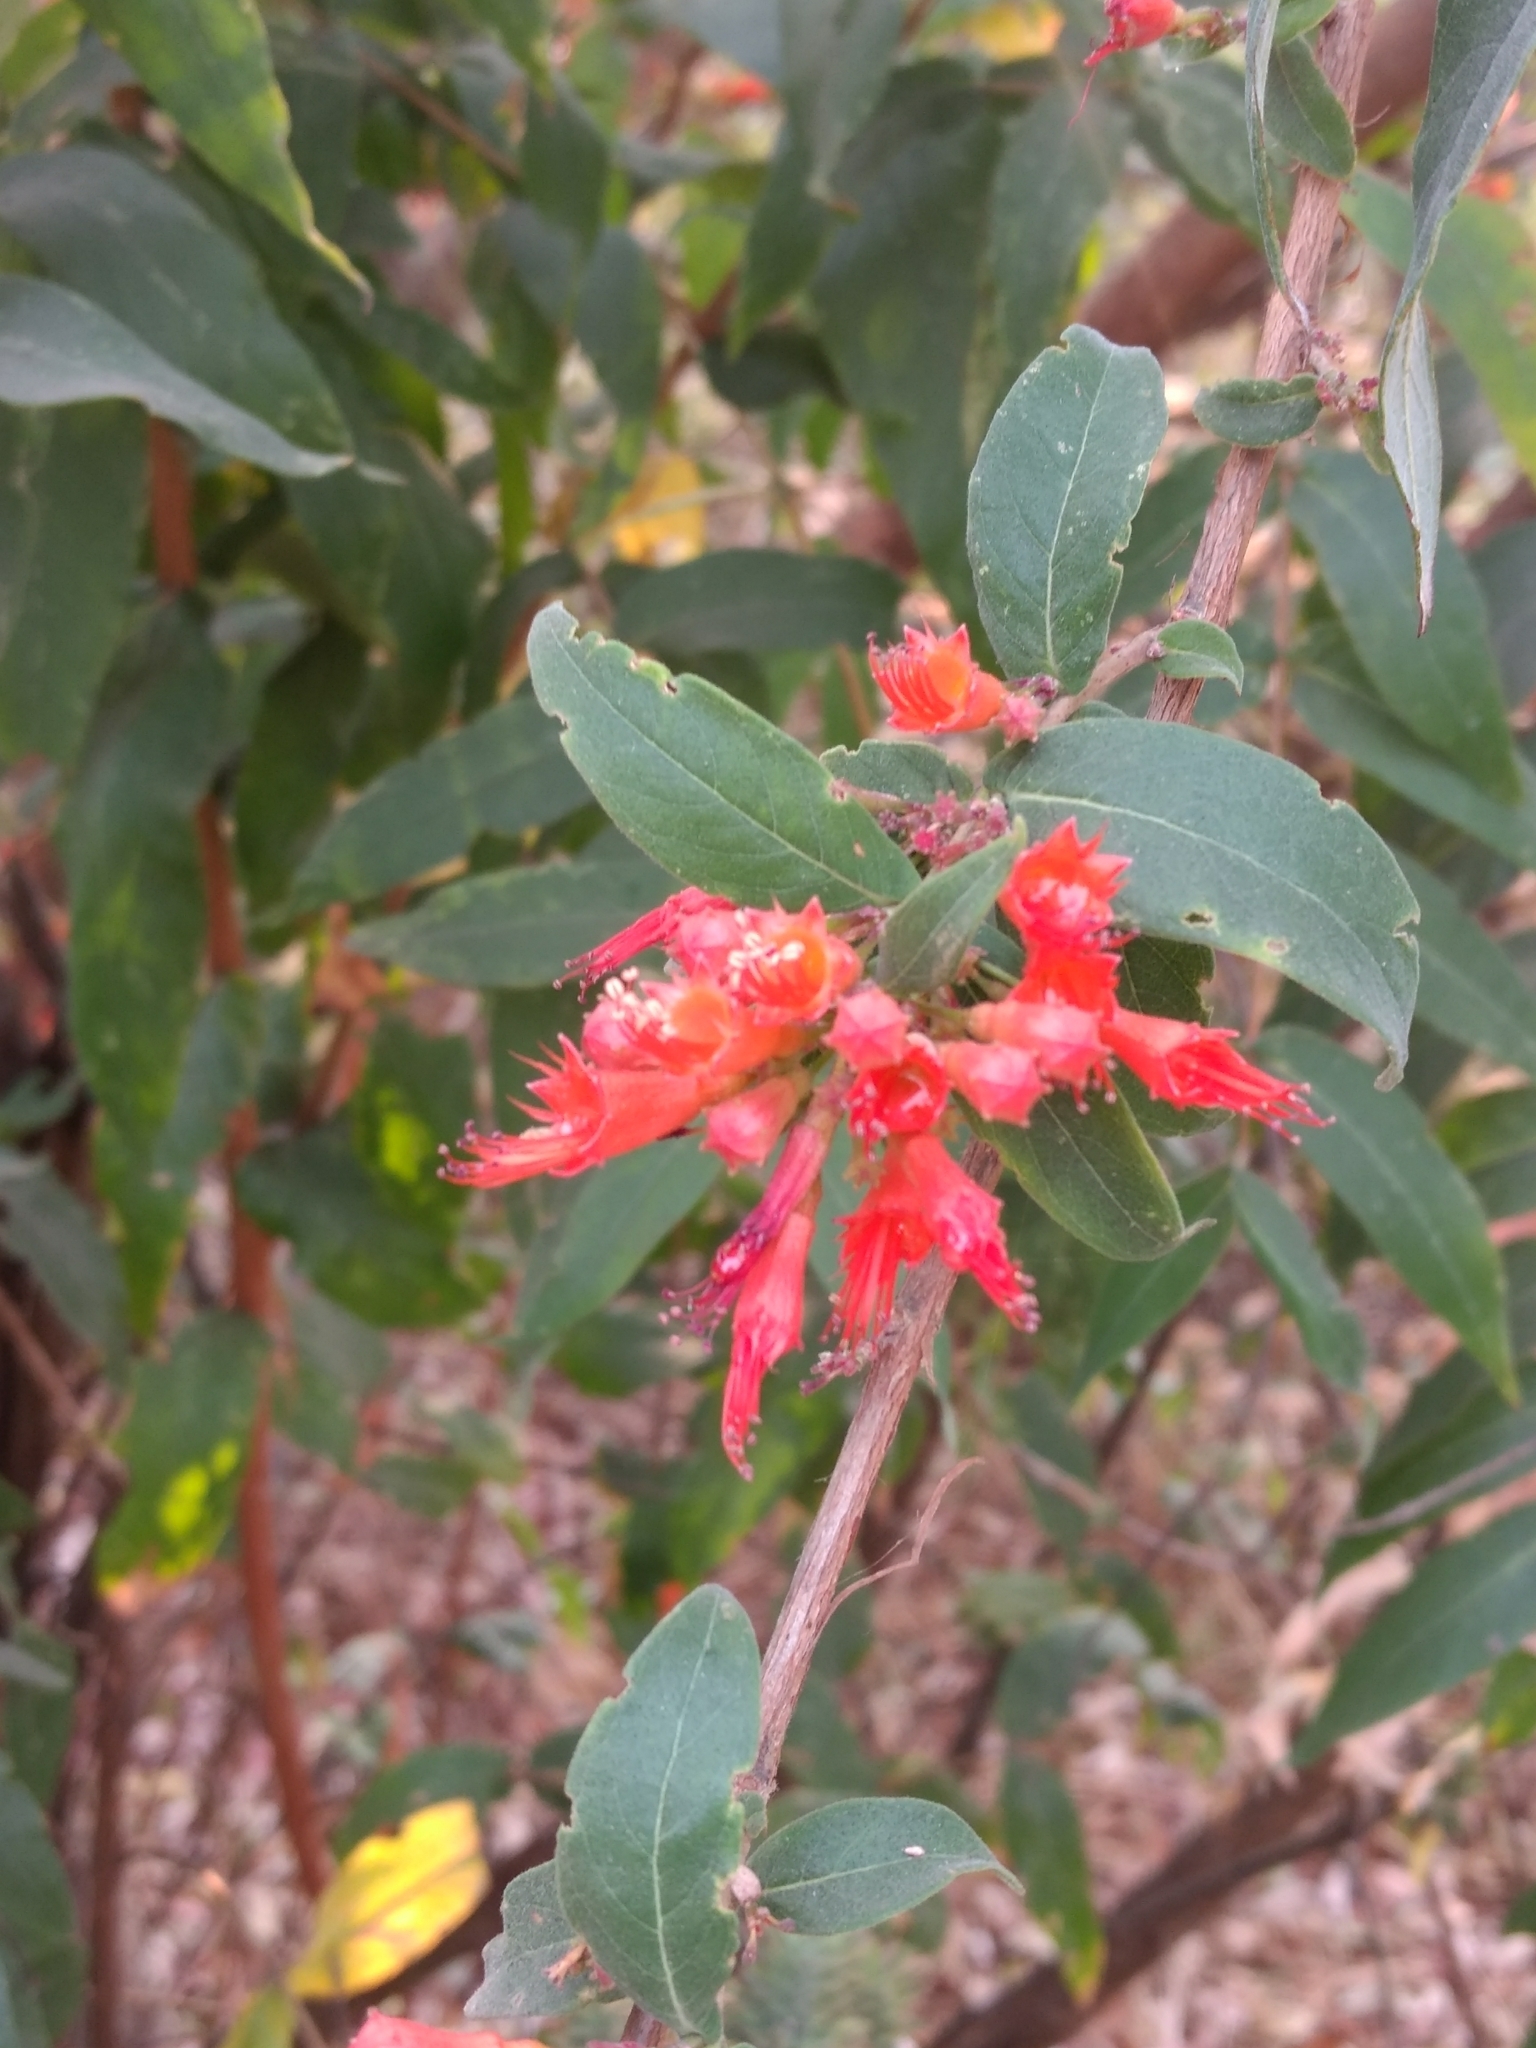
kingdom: Plantae
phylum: Tracheophyta
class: Magnoliopsida
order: Myrtales
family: Lythraceae
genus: Woodfordia
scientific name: Woodfordia fruticosa
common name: Shiranji-tea
